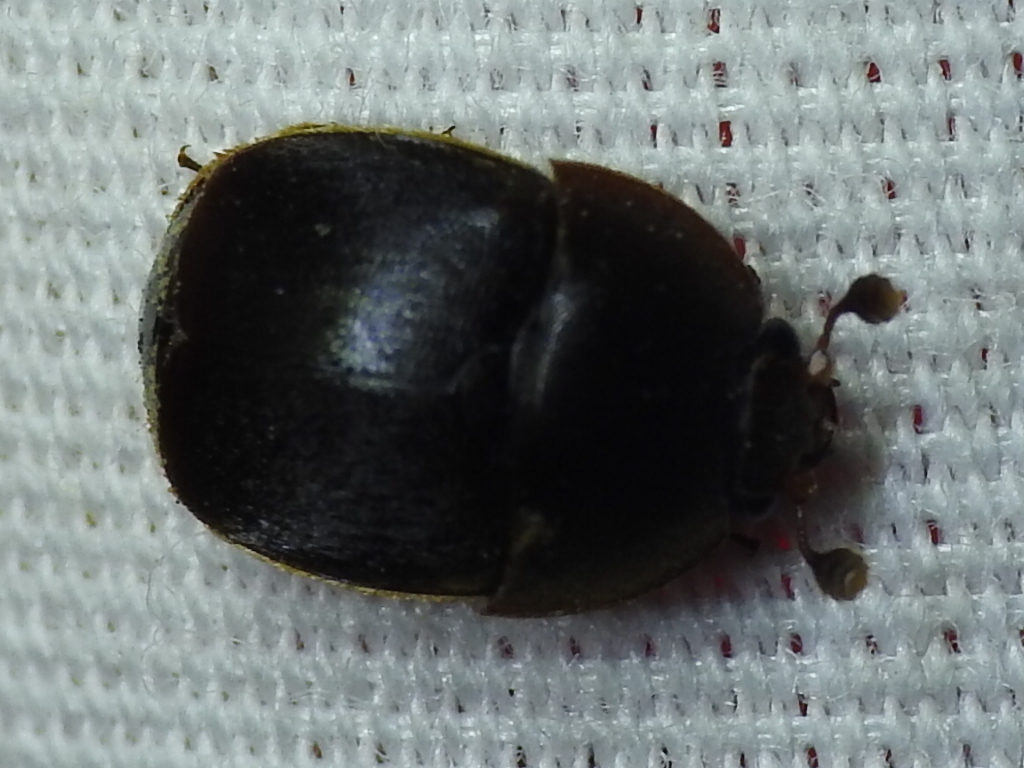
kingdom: Animalia
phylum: Arthropoda
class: Insecta
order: Coleoptera
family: Nitidulidae
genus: Aethina
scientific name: Aethina tumida
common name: Small hive beetle
